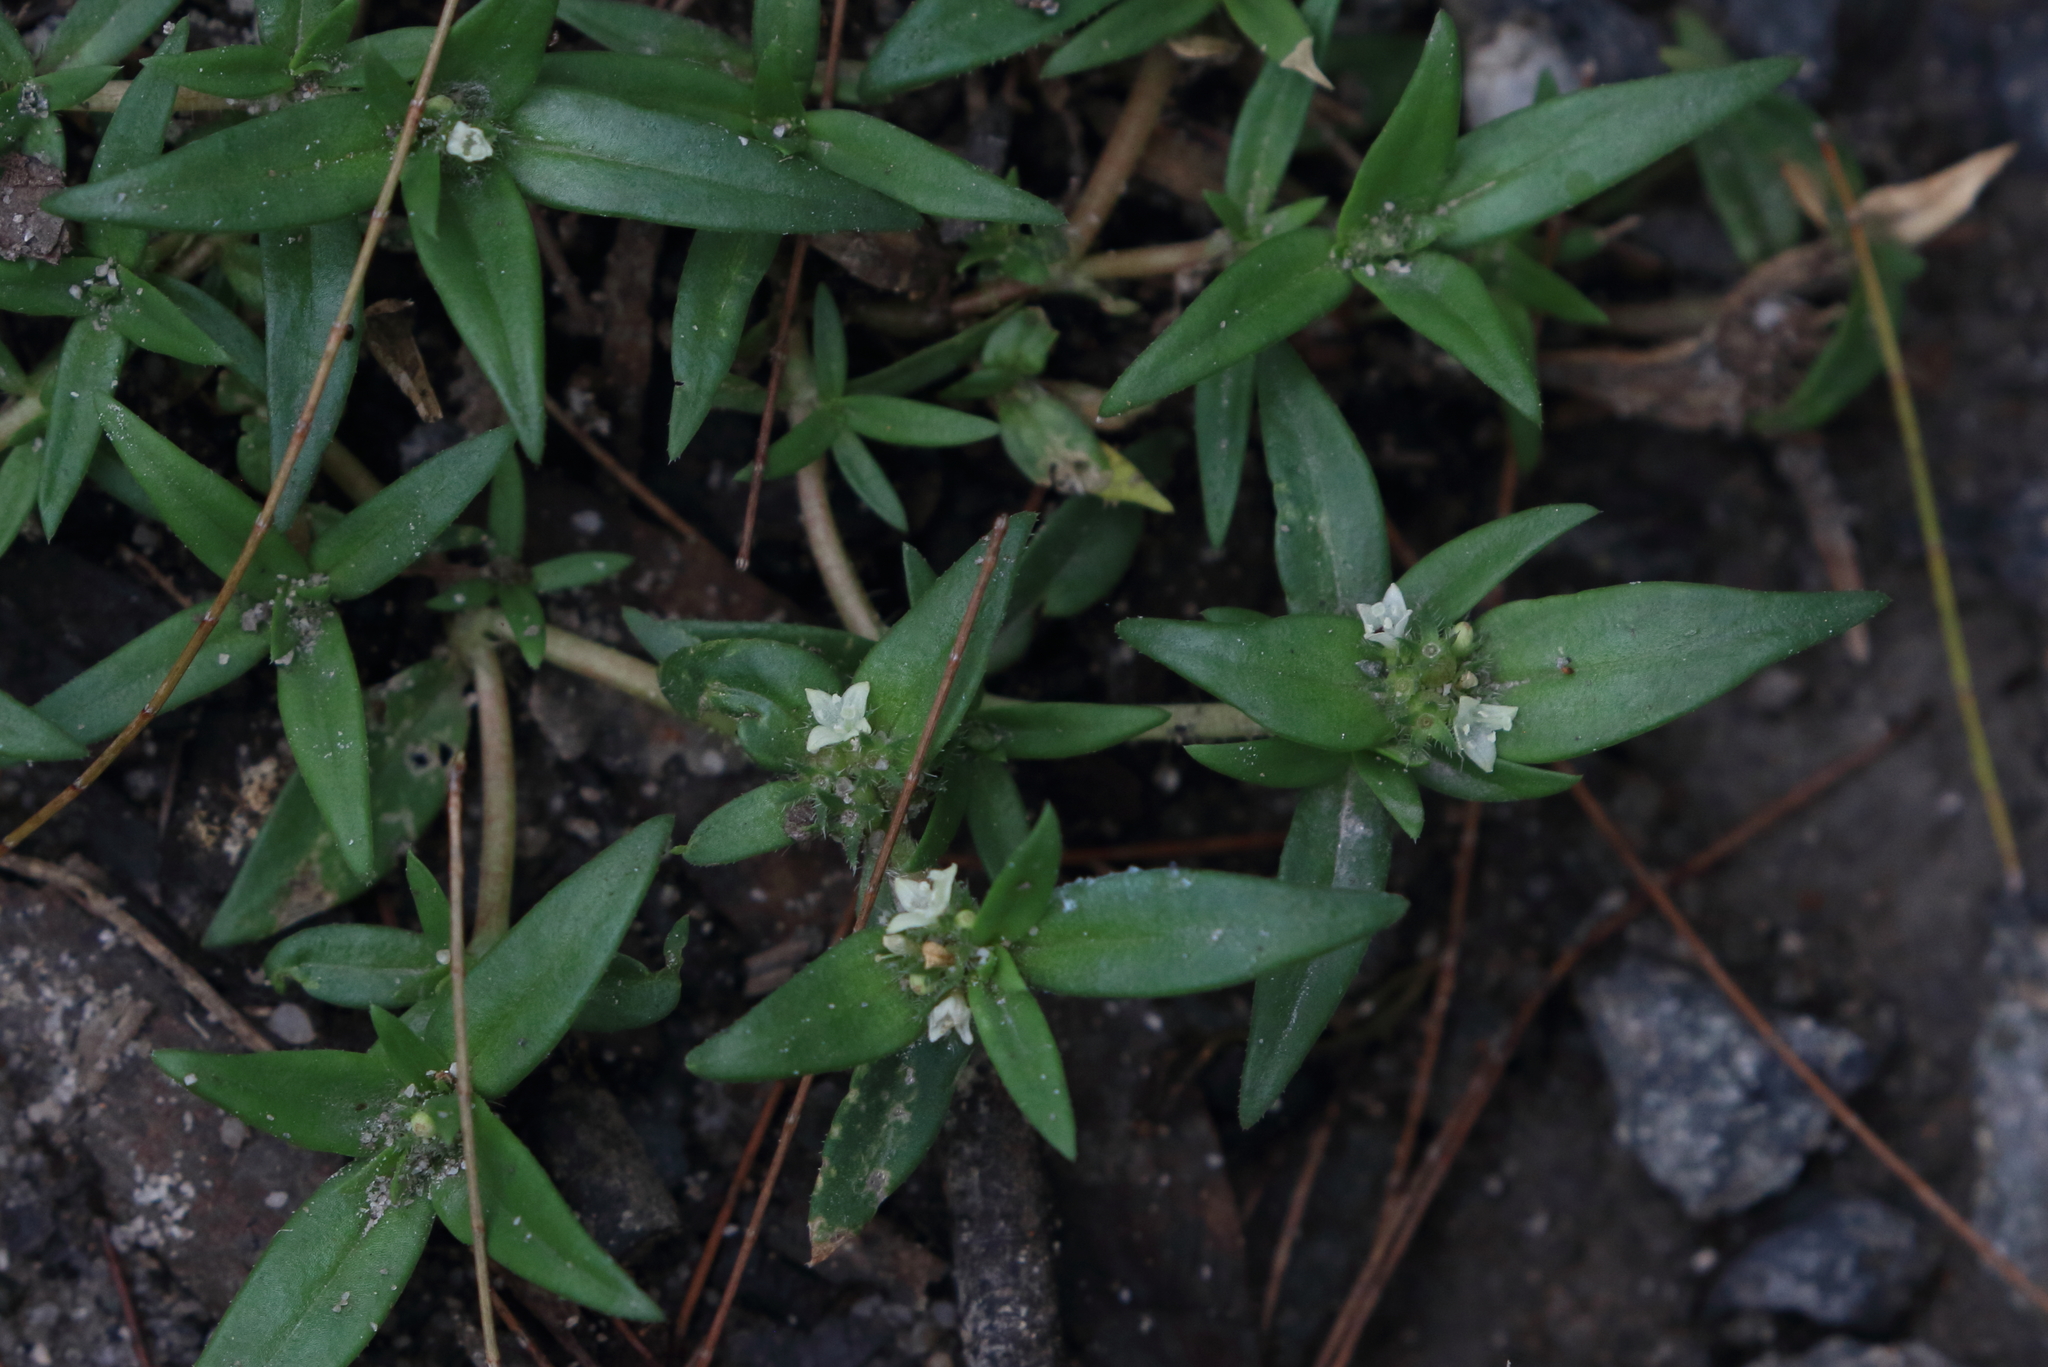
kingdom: Plantae
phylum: Tracheophyta
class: Magnoliopsida
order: Gentianales
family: Rubiaceae
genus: Richardia
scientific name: Richardia stellaris
